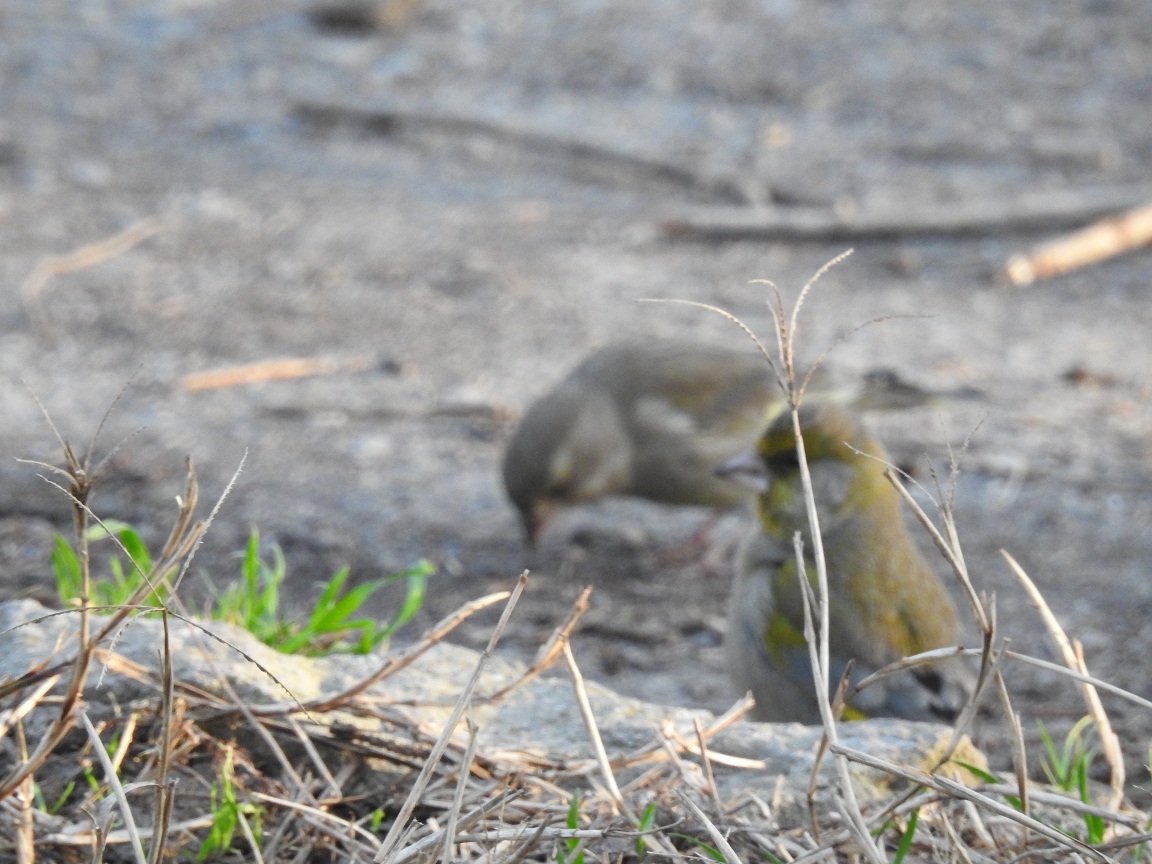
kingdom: Plantae
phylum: Tracheophyta
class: Liliopsida
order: Poales
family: Poaceae
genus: Chloris
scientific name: Chloris chloris
